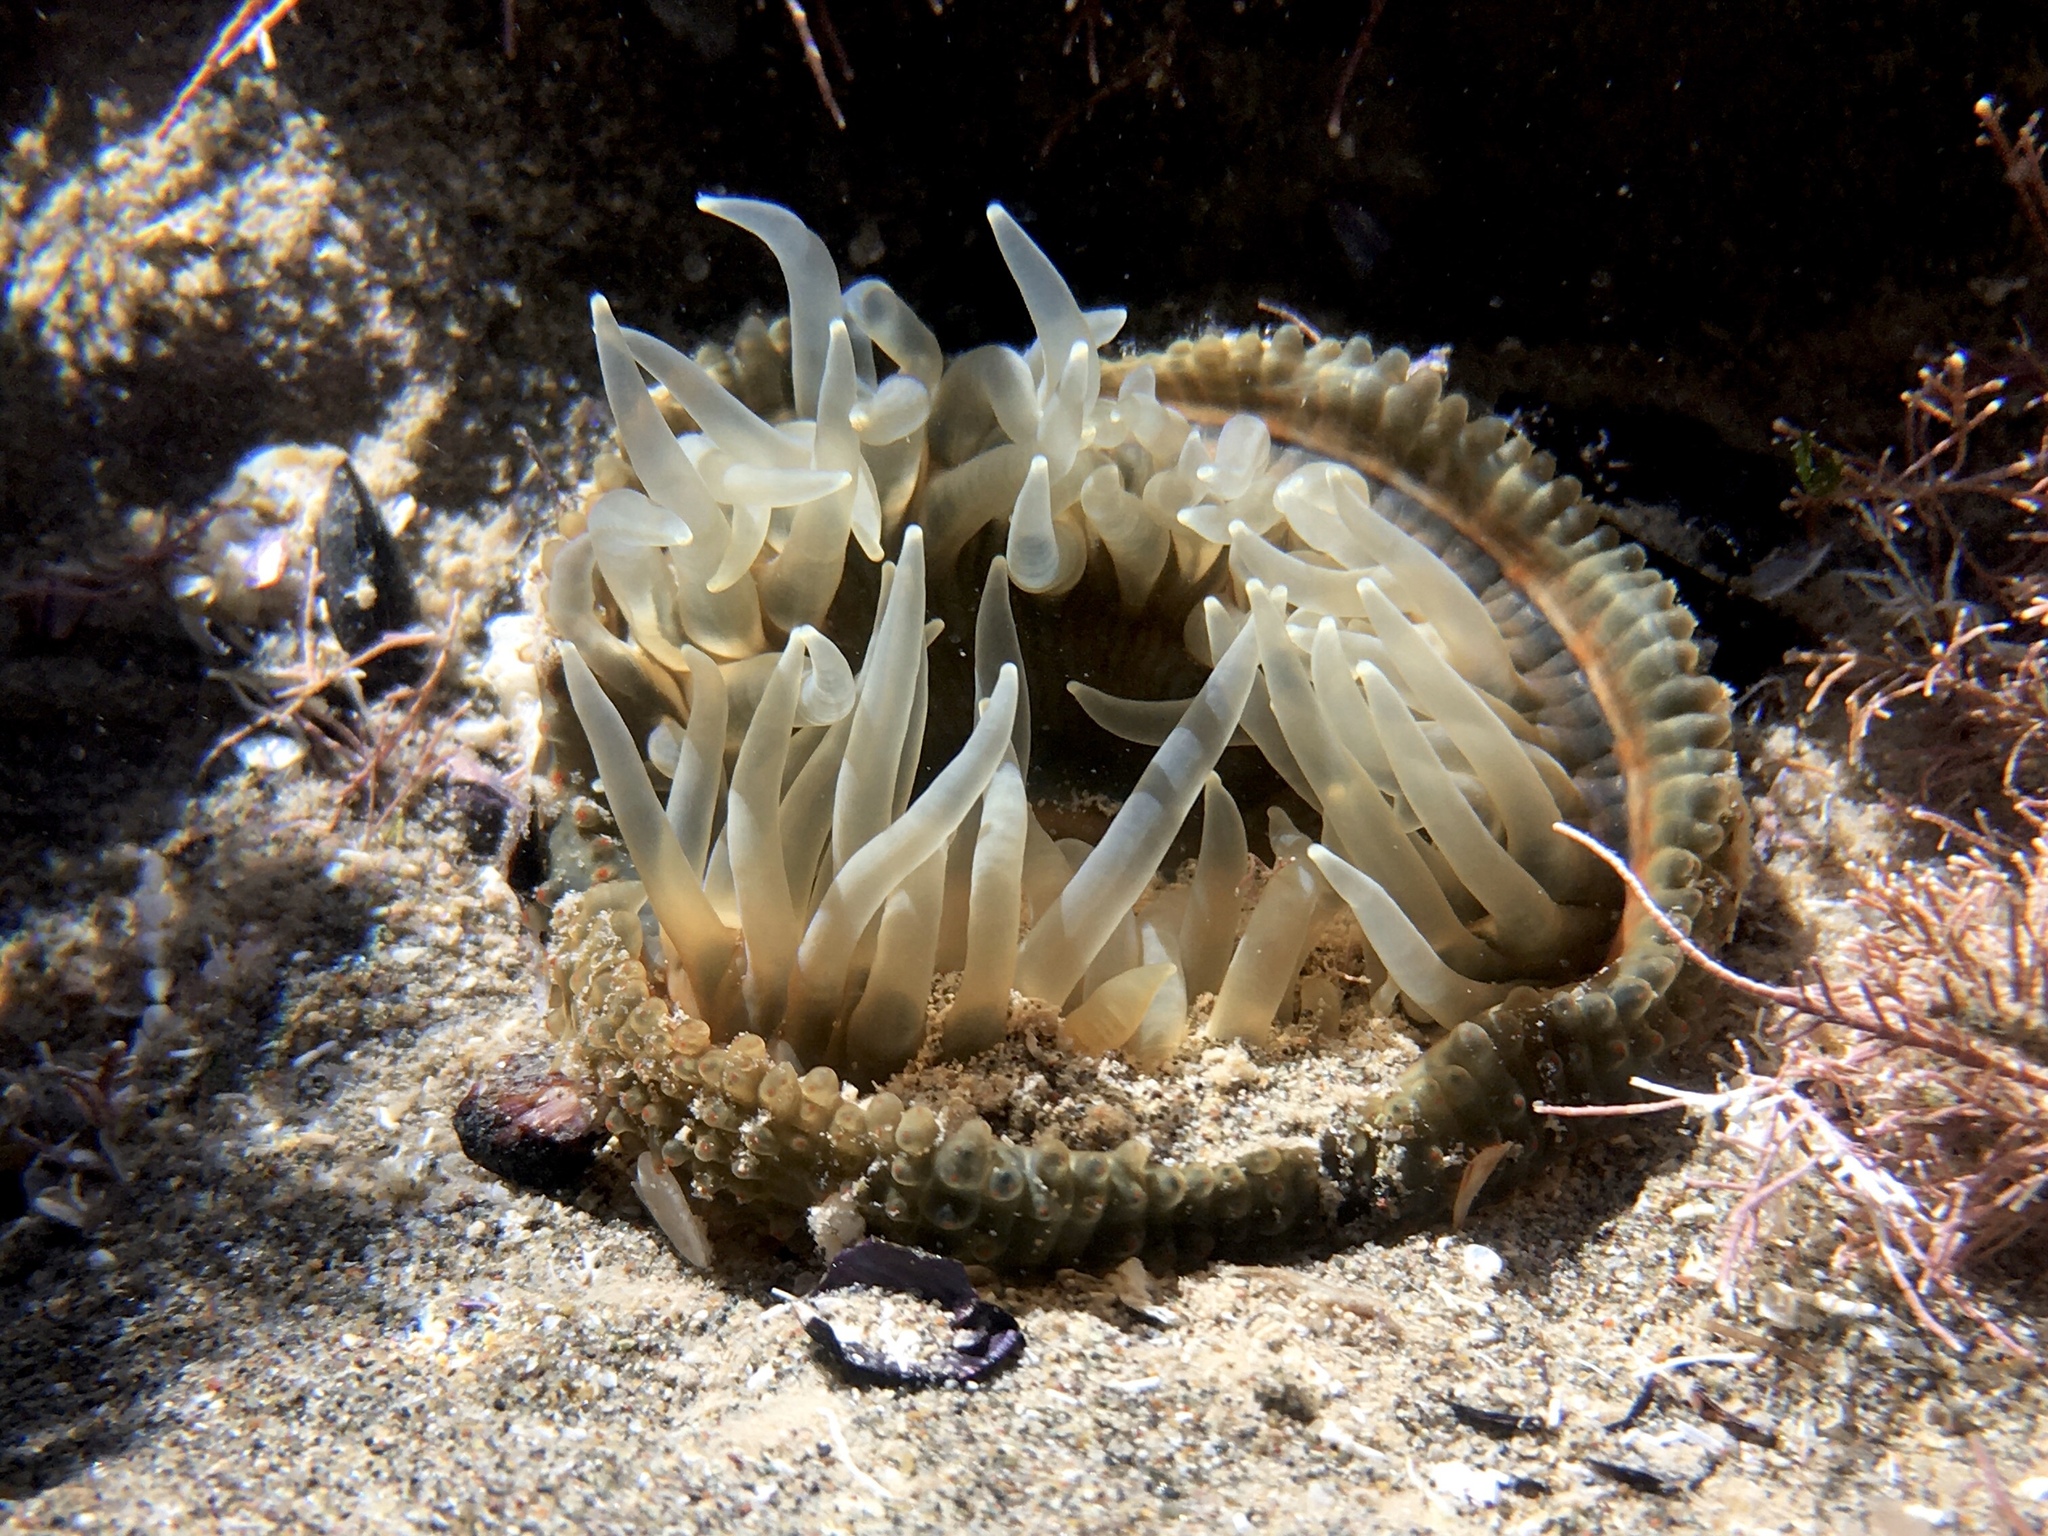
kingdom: Animalia
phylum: Cnidaria
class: Anthozoa
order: Actiniaria
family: Actiniidae
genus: Parabunodactis
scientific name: Parabunodactis imperfecta
